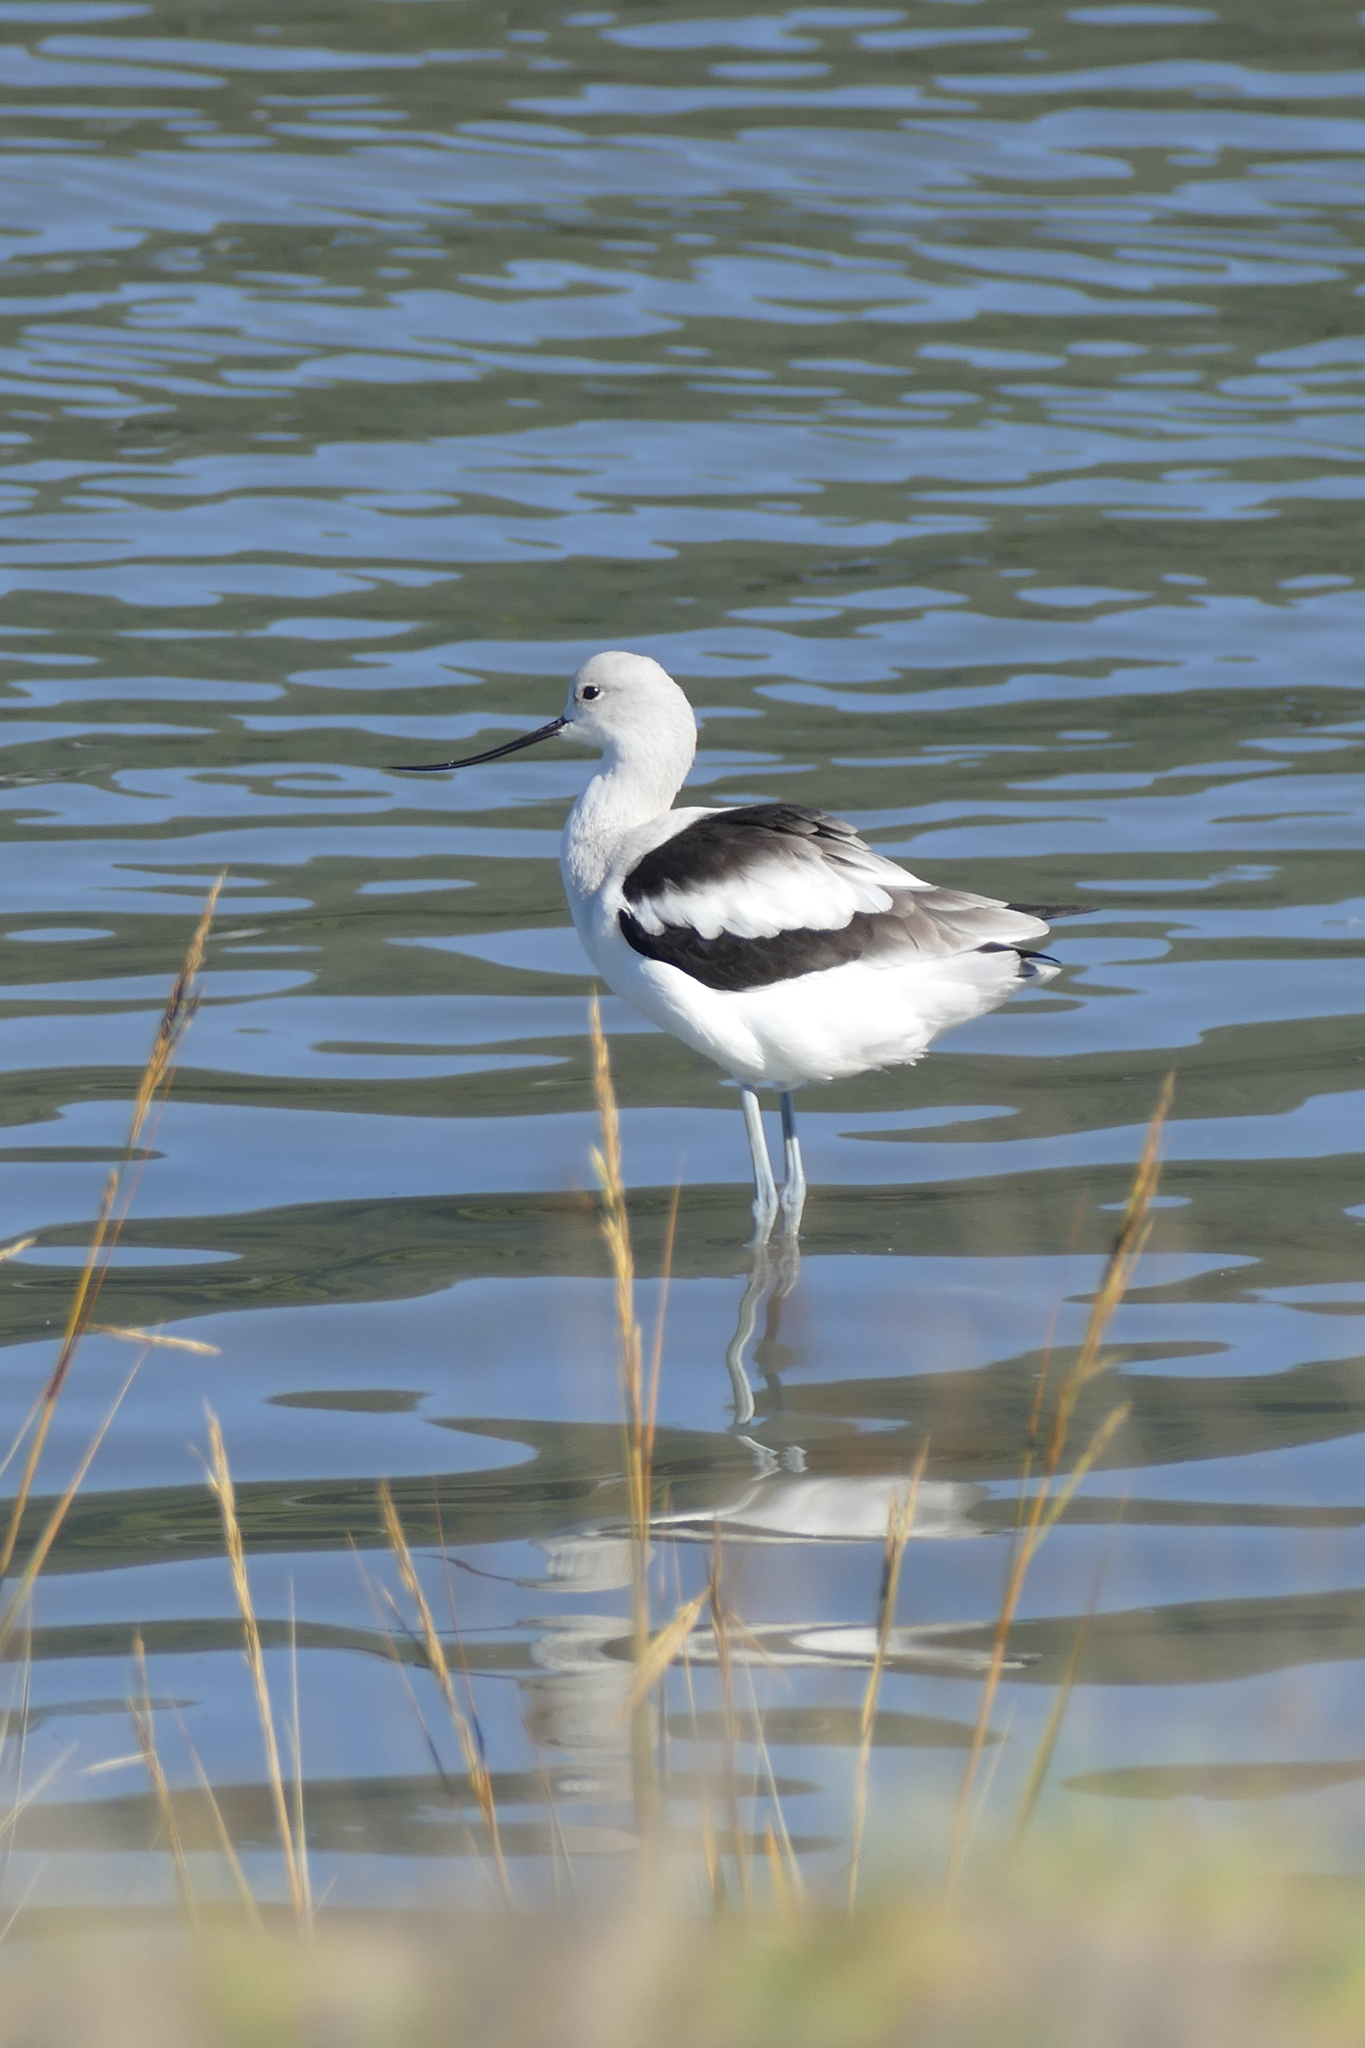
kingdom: Animalia
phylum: Chordata
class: Aves
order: Charadriiformes
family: Recurvirostridae
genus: Recurvirostra
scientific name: Recurvirostra americana
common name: American avocet
